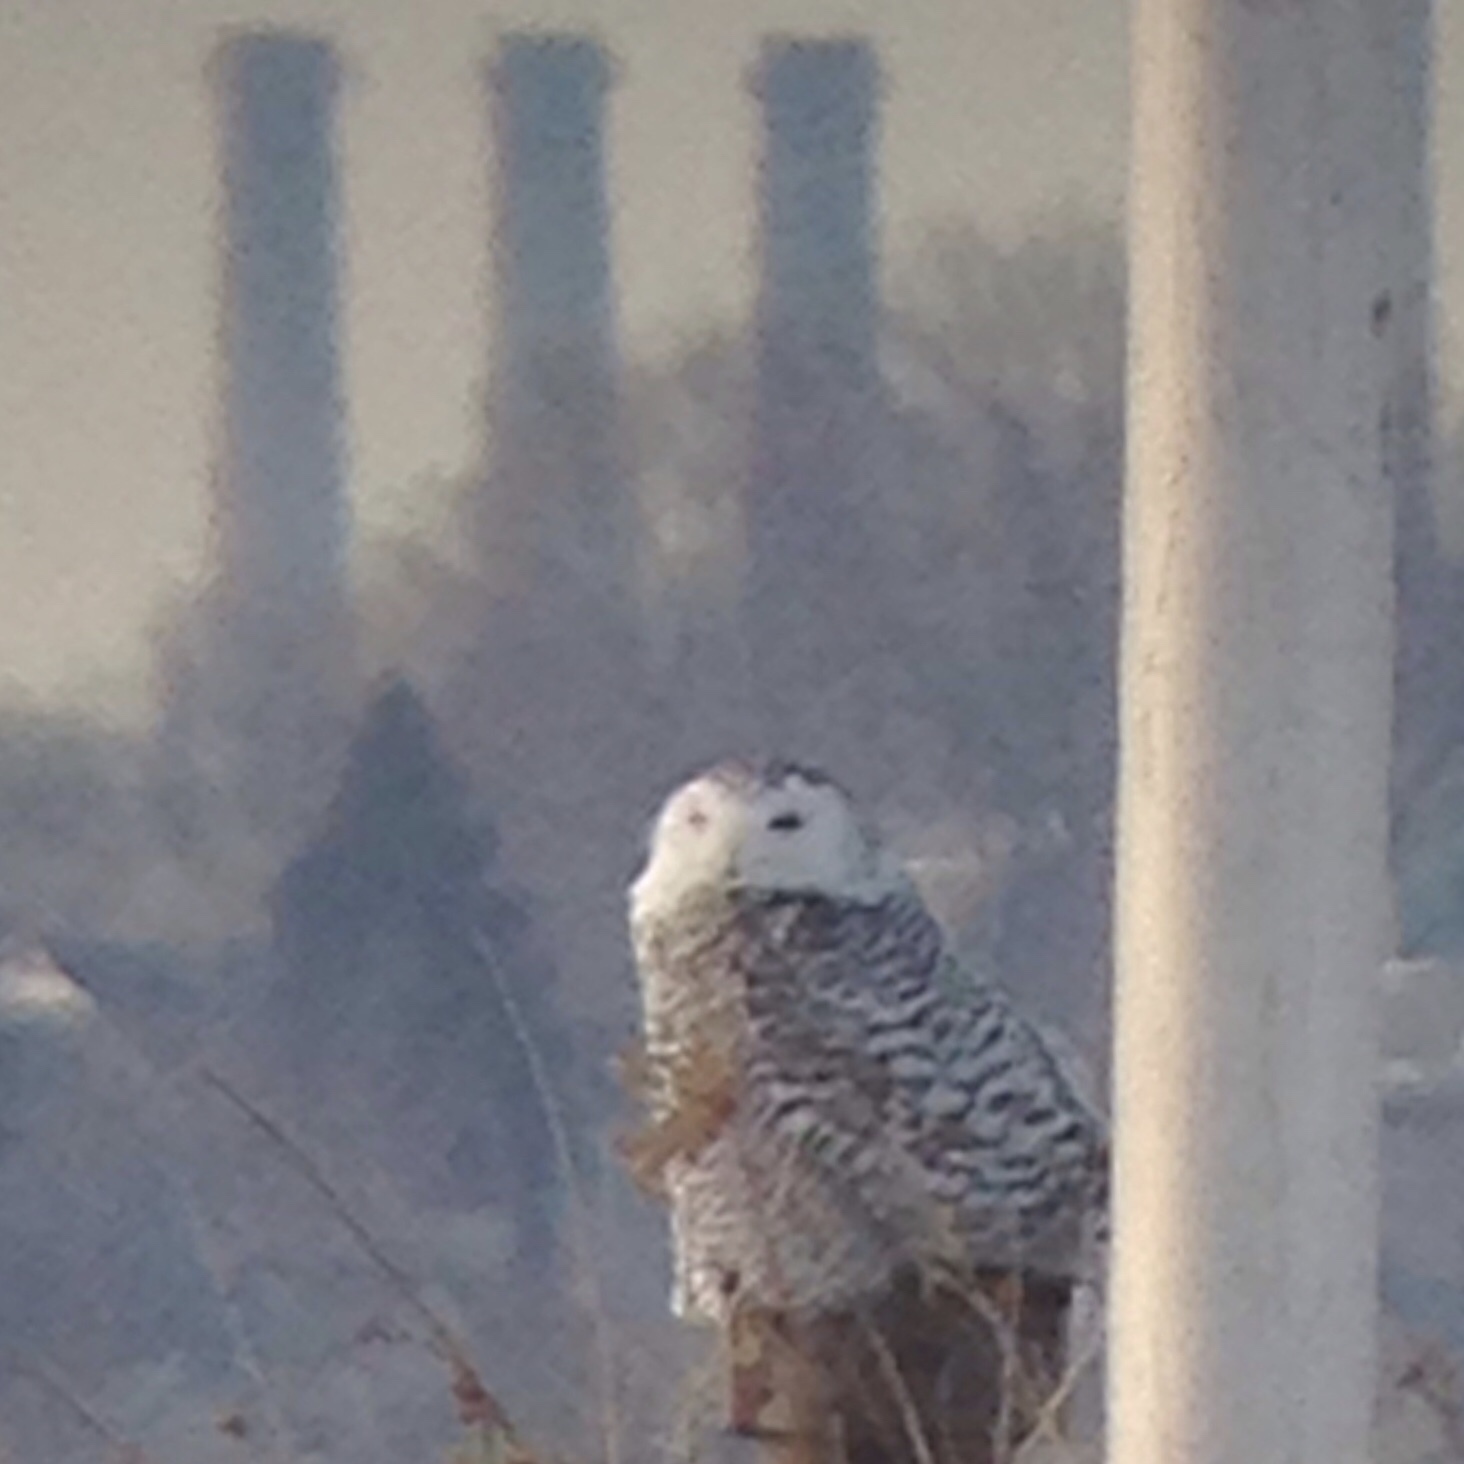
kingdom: Animalia
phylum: Chordata
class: Aves
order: Strigiformes
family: Strigidae
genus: Bubo
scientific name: Bubo scandiacus
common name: Snowy owl
